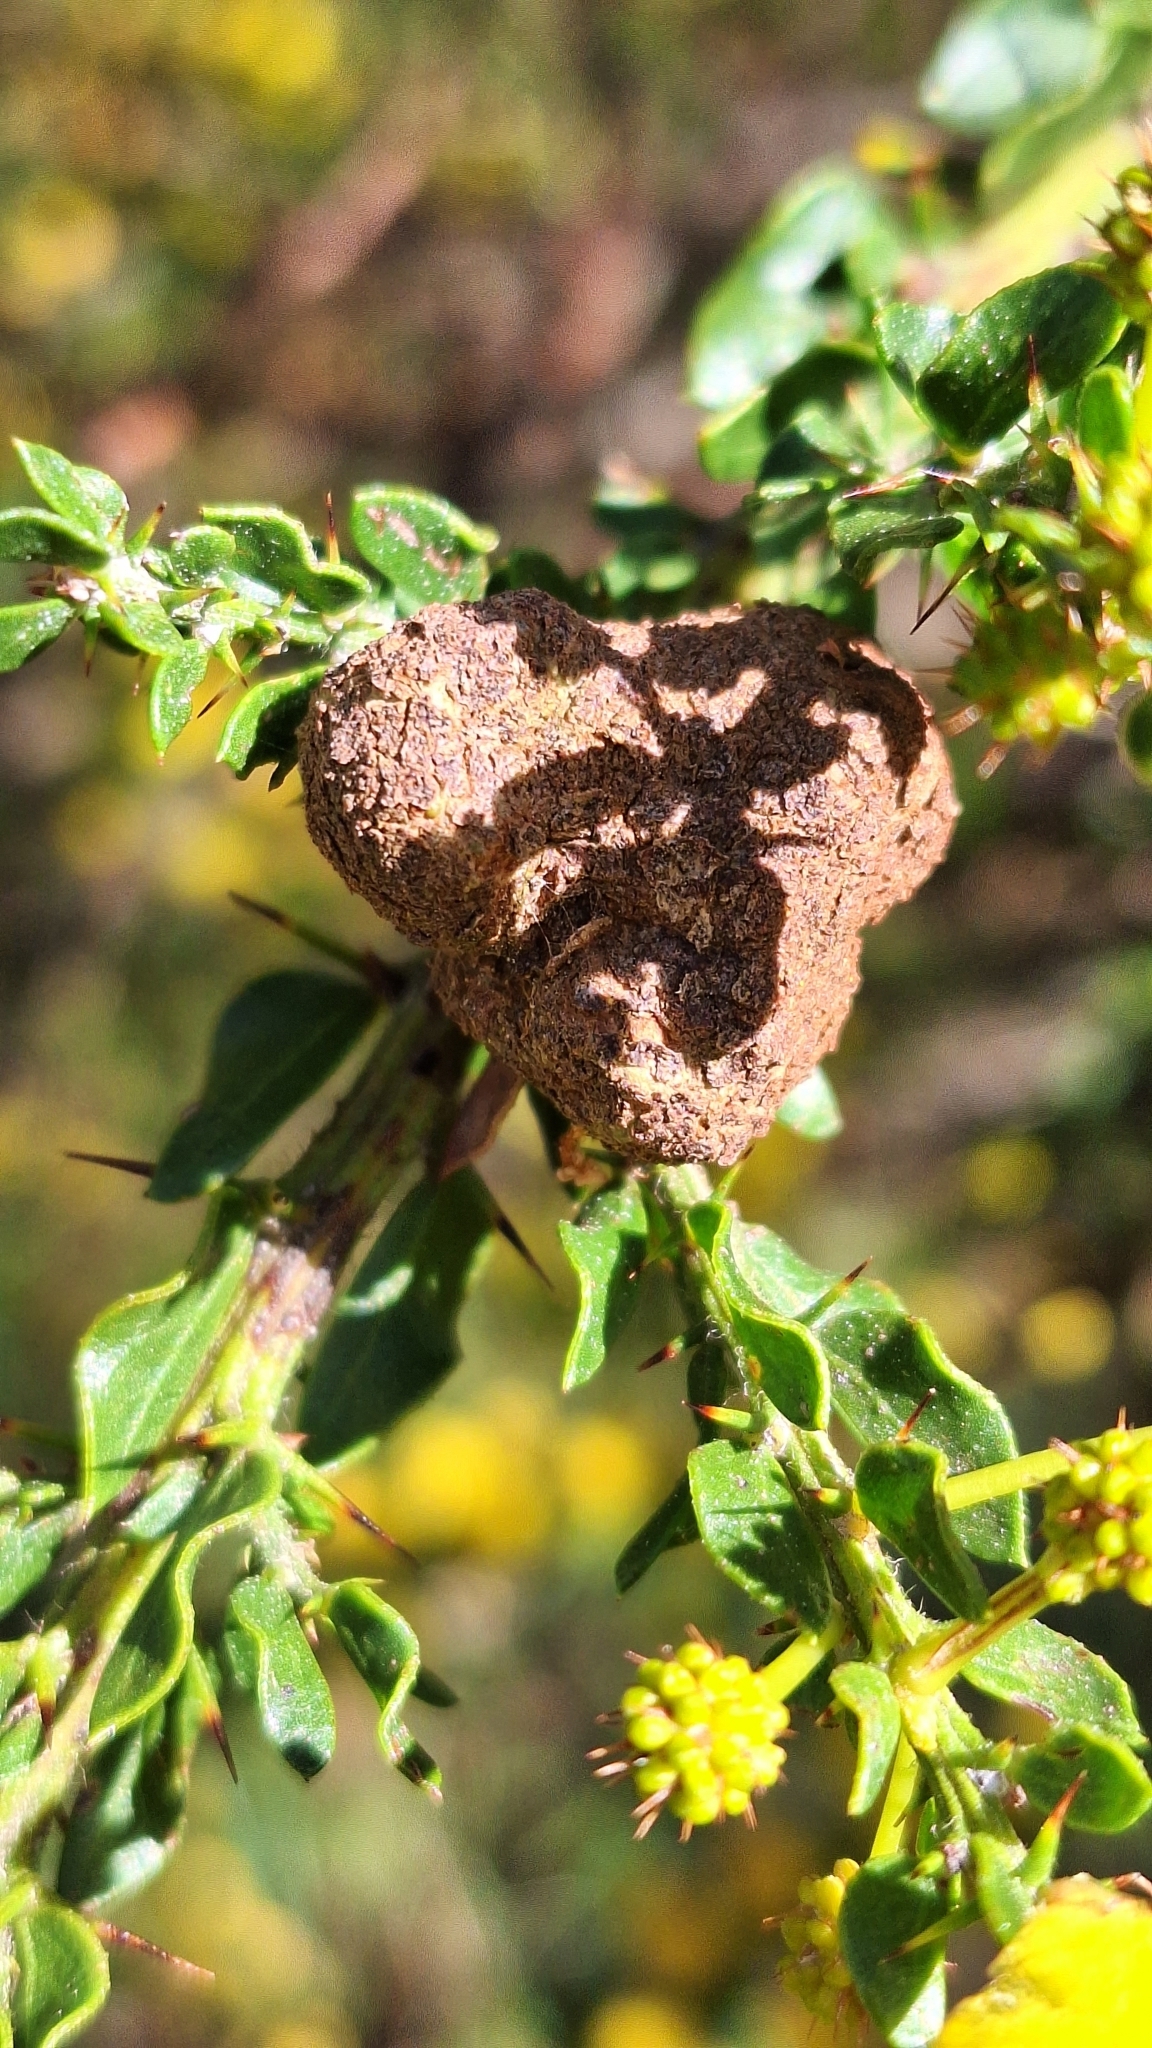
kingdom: Fungi
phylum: Basidiomycota
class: Pucciniomycetes
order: Pucciniales
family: Uromycladiaceae
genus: Uromycladium
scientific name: Uromycladium paradoxae
